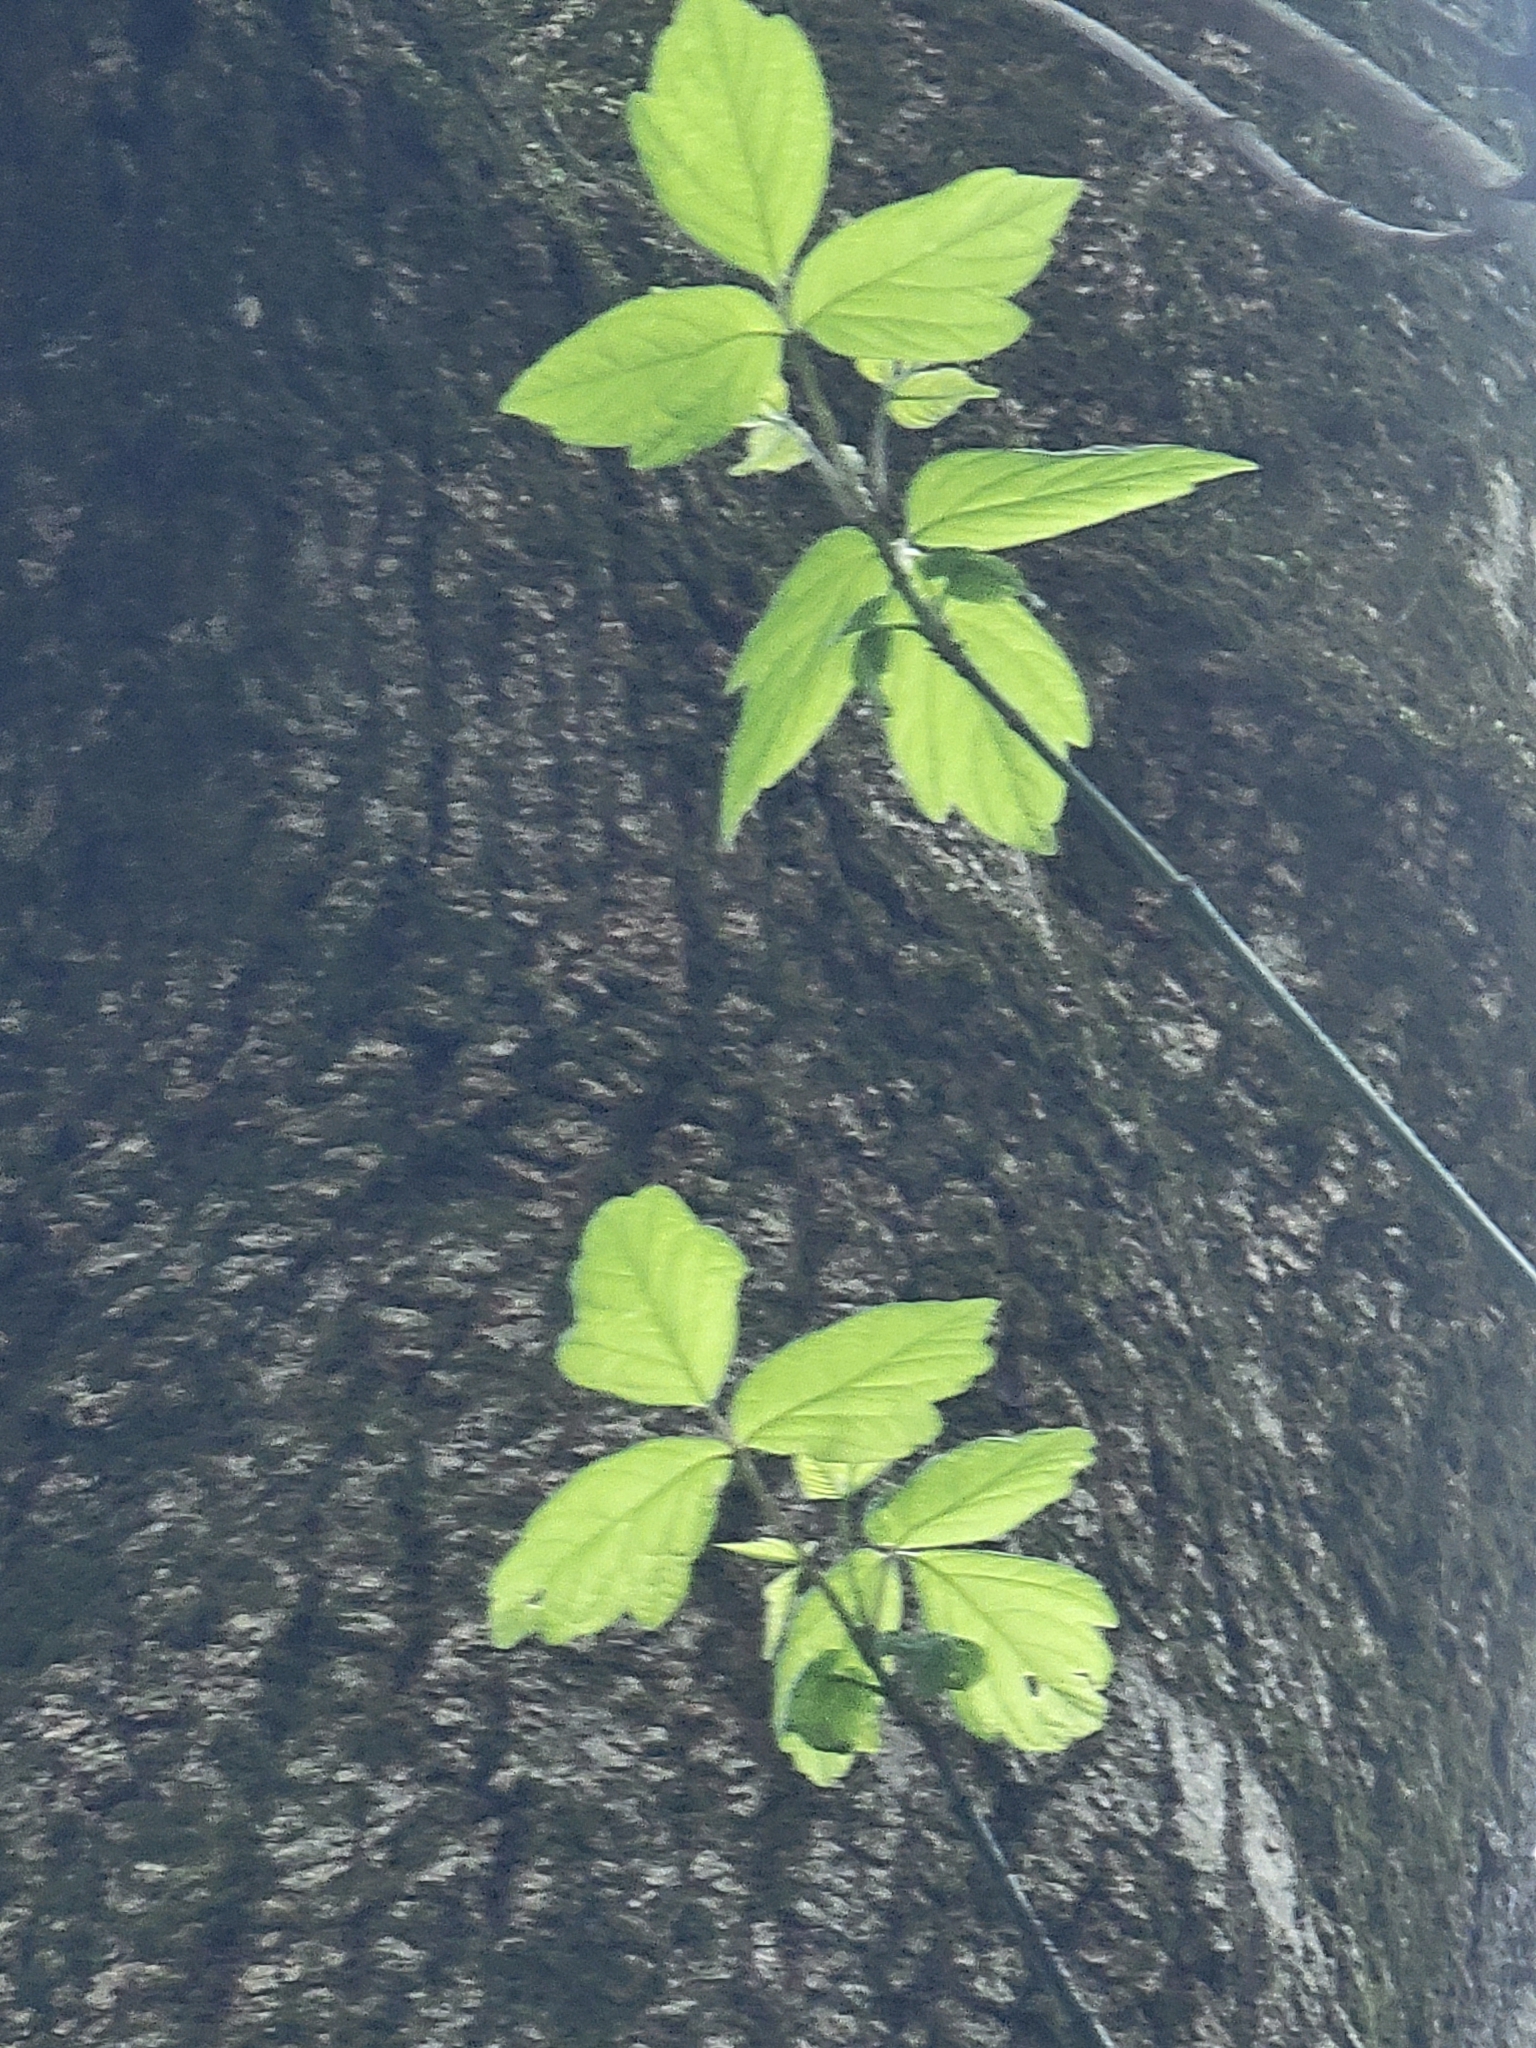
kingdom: Plantae
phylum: Tracheophyta
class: Magnoliopsida
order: Sapindales
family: Sapindaceae
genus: Acer
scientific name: Acer negundo
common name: Ashleaf maple
